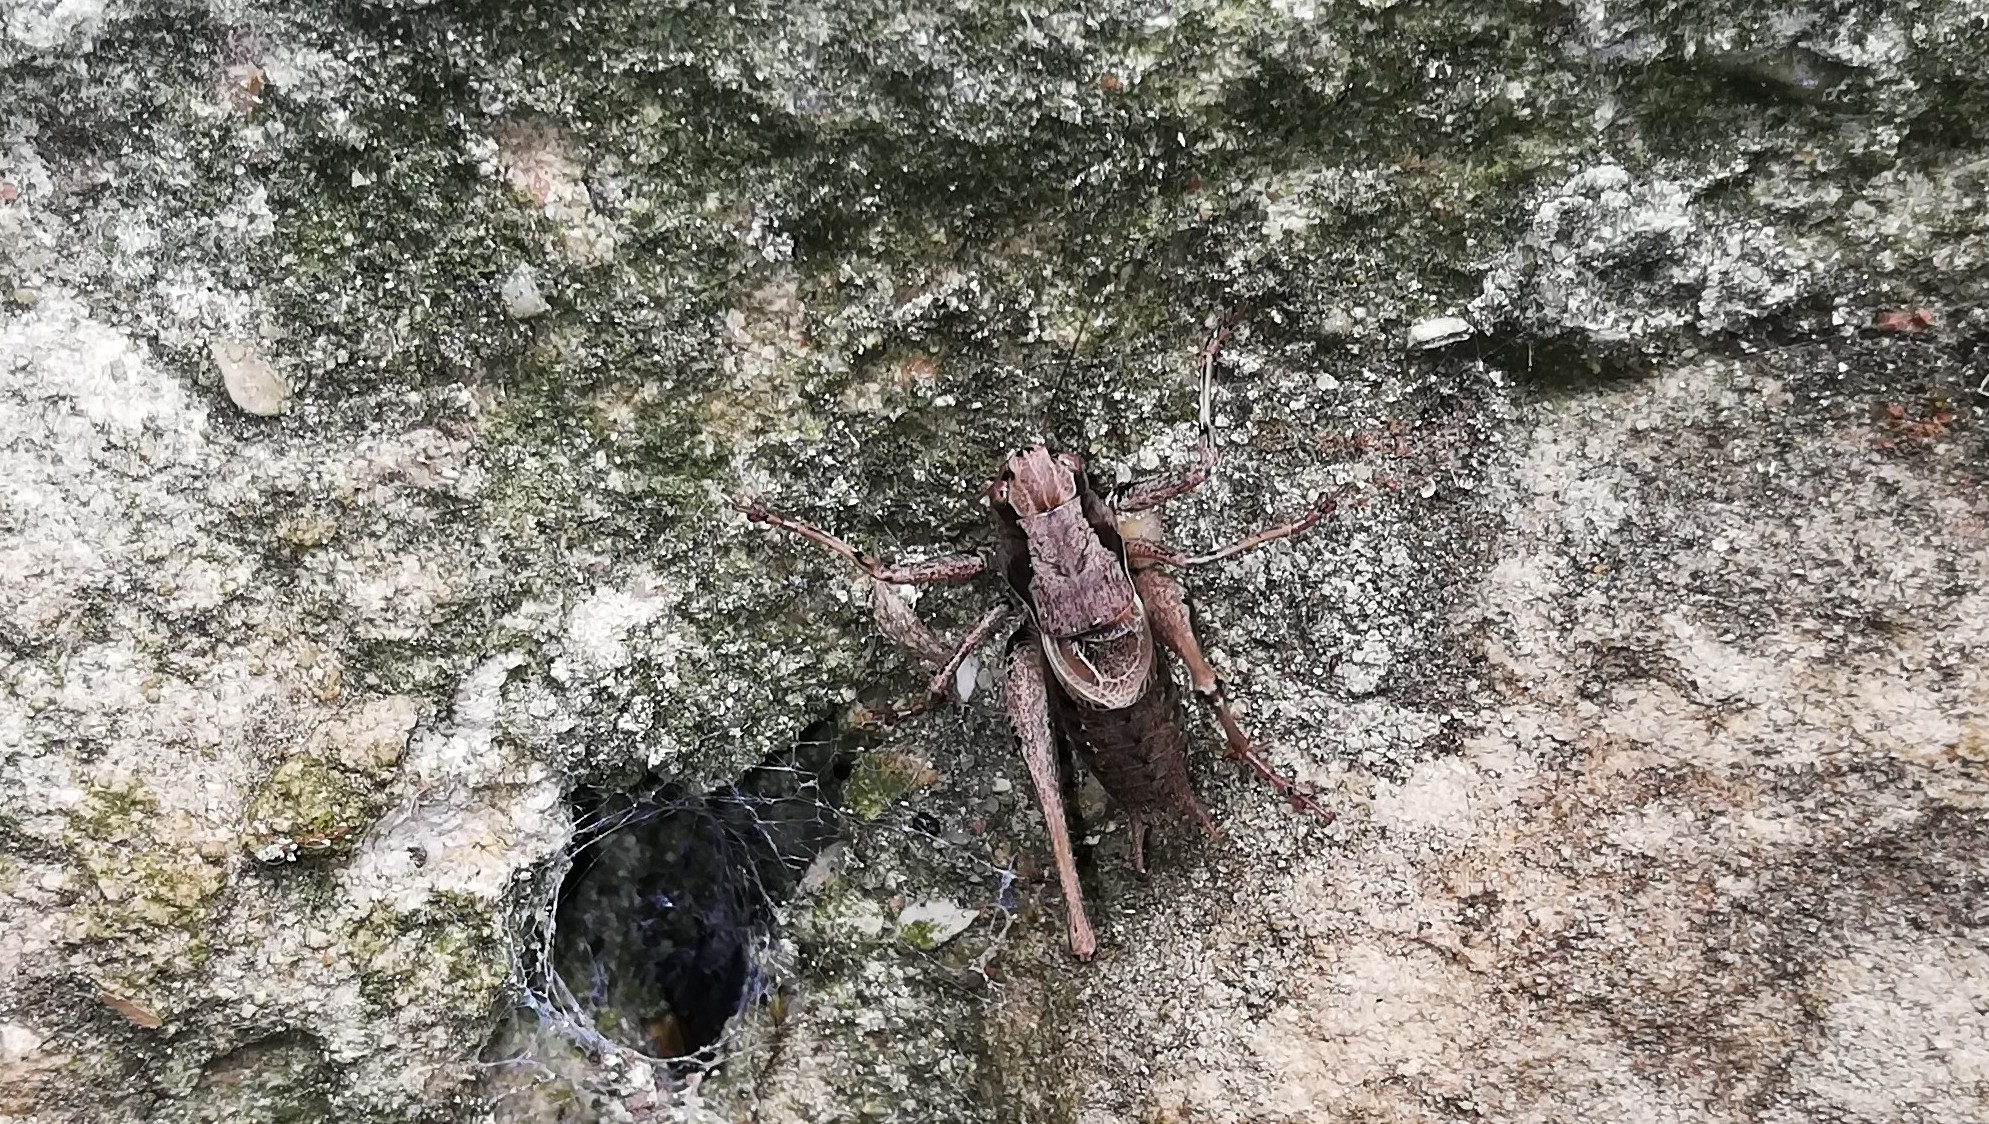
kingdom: Animalia
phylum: Arthropoda
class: Insecta
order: Orthoptera
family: Tettigoniidae
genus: Pholidoptera
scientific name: Pholidoptera griseoaptera
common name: Dark bush-cricket
